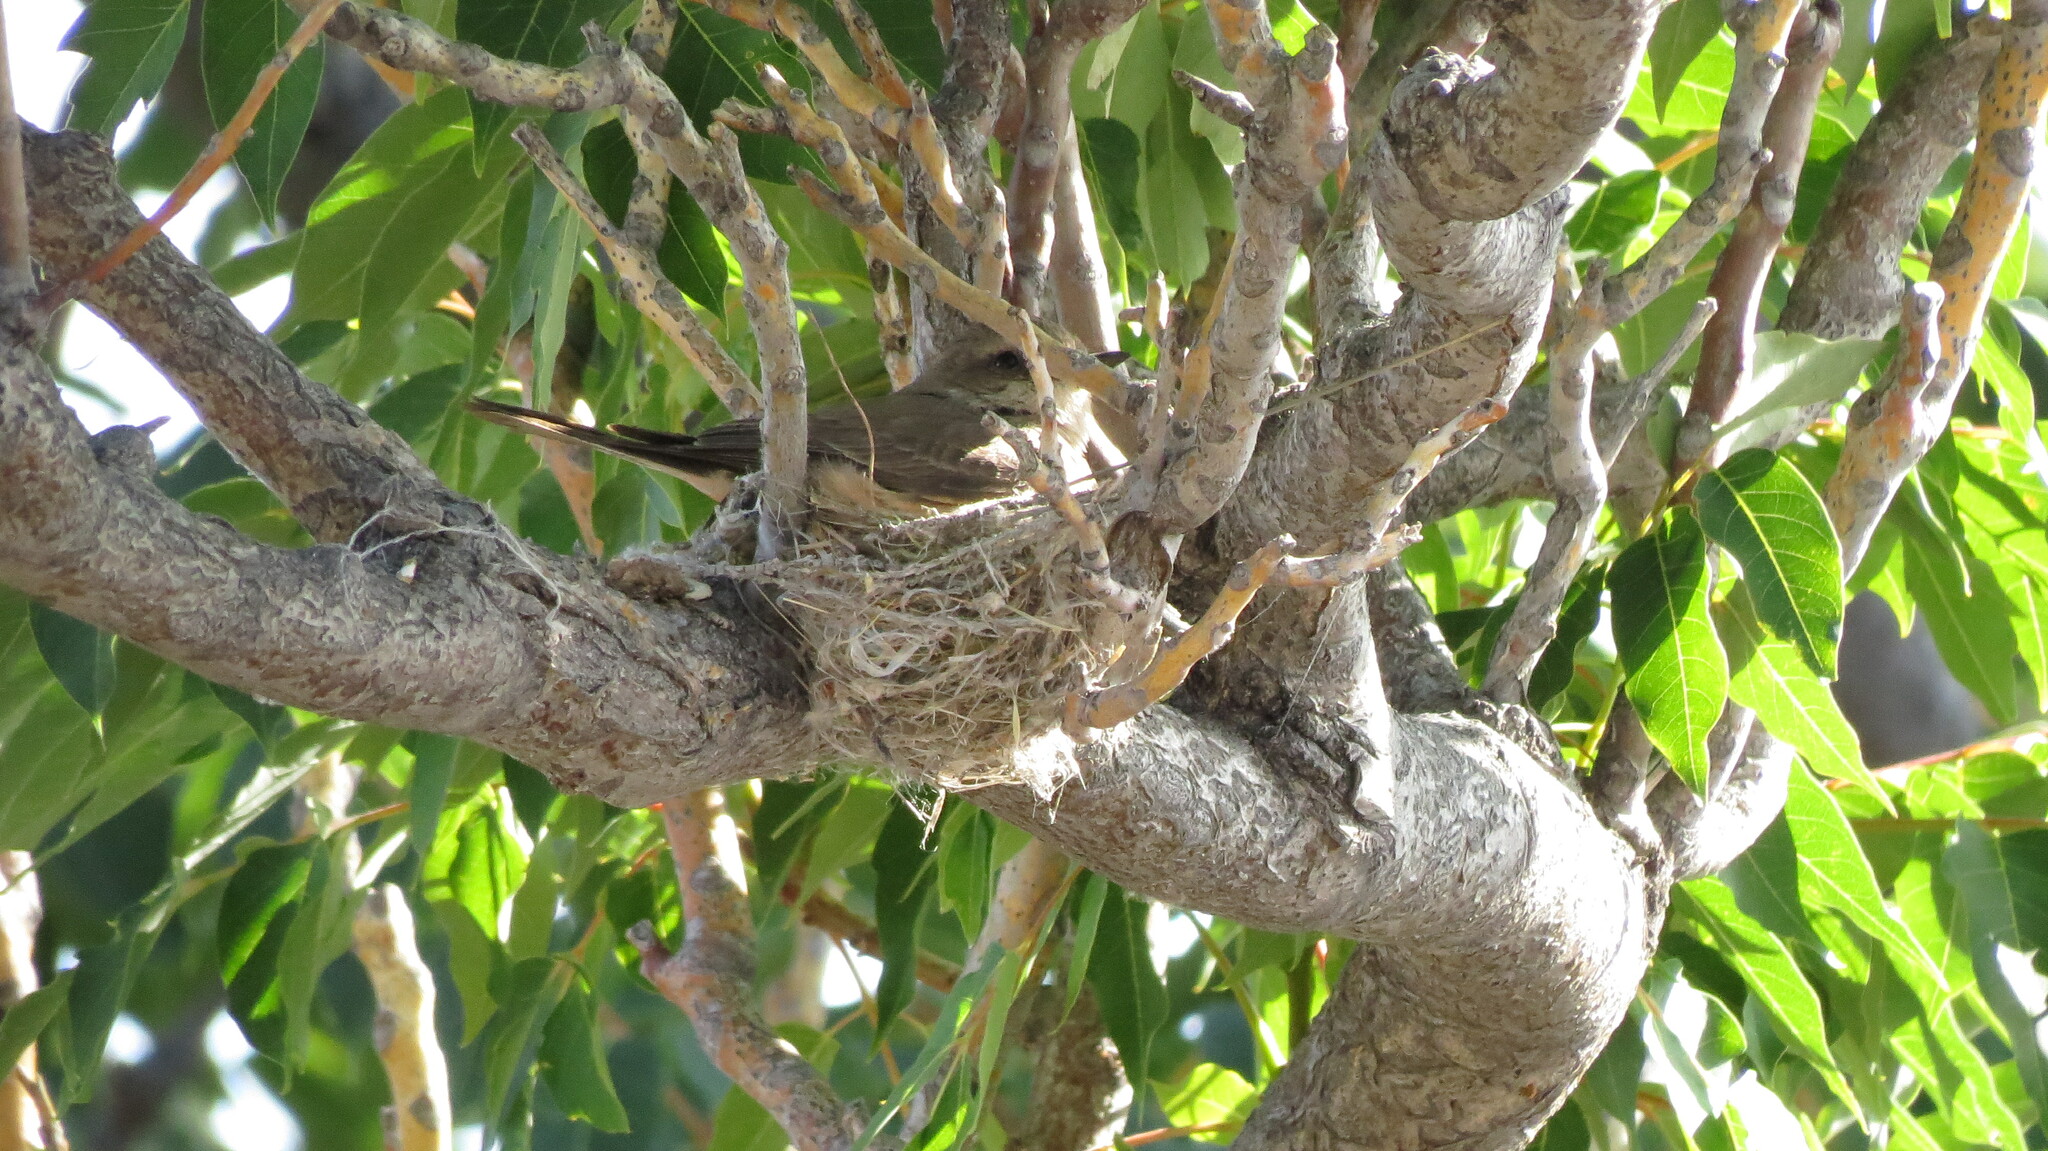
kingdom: Animalia
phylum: Chordata
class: Aves
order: Passeriformes
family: Tyrannidae
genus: Pyrocephalus
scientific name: Pyrocephalus rubinus
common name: Vermilion flycatcher
